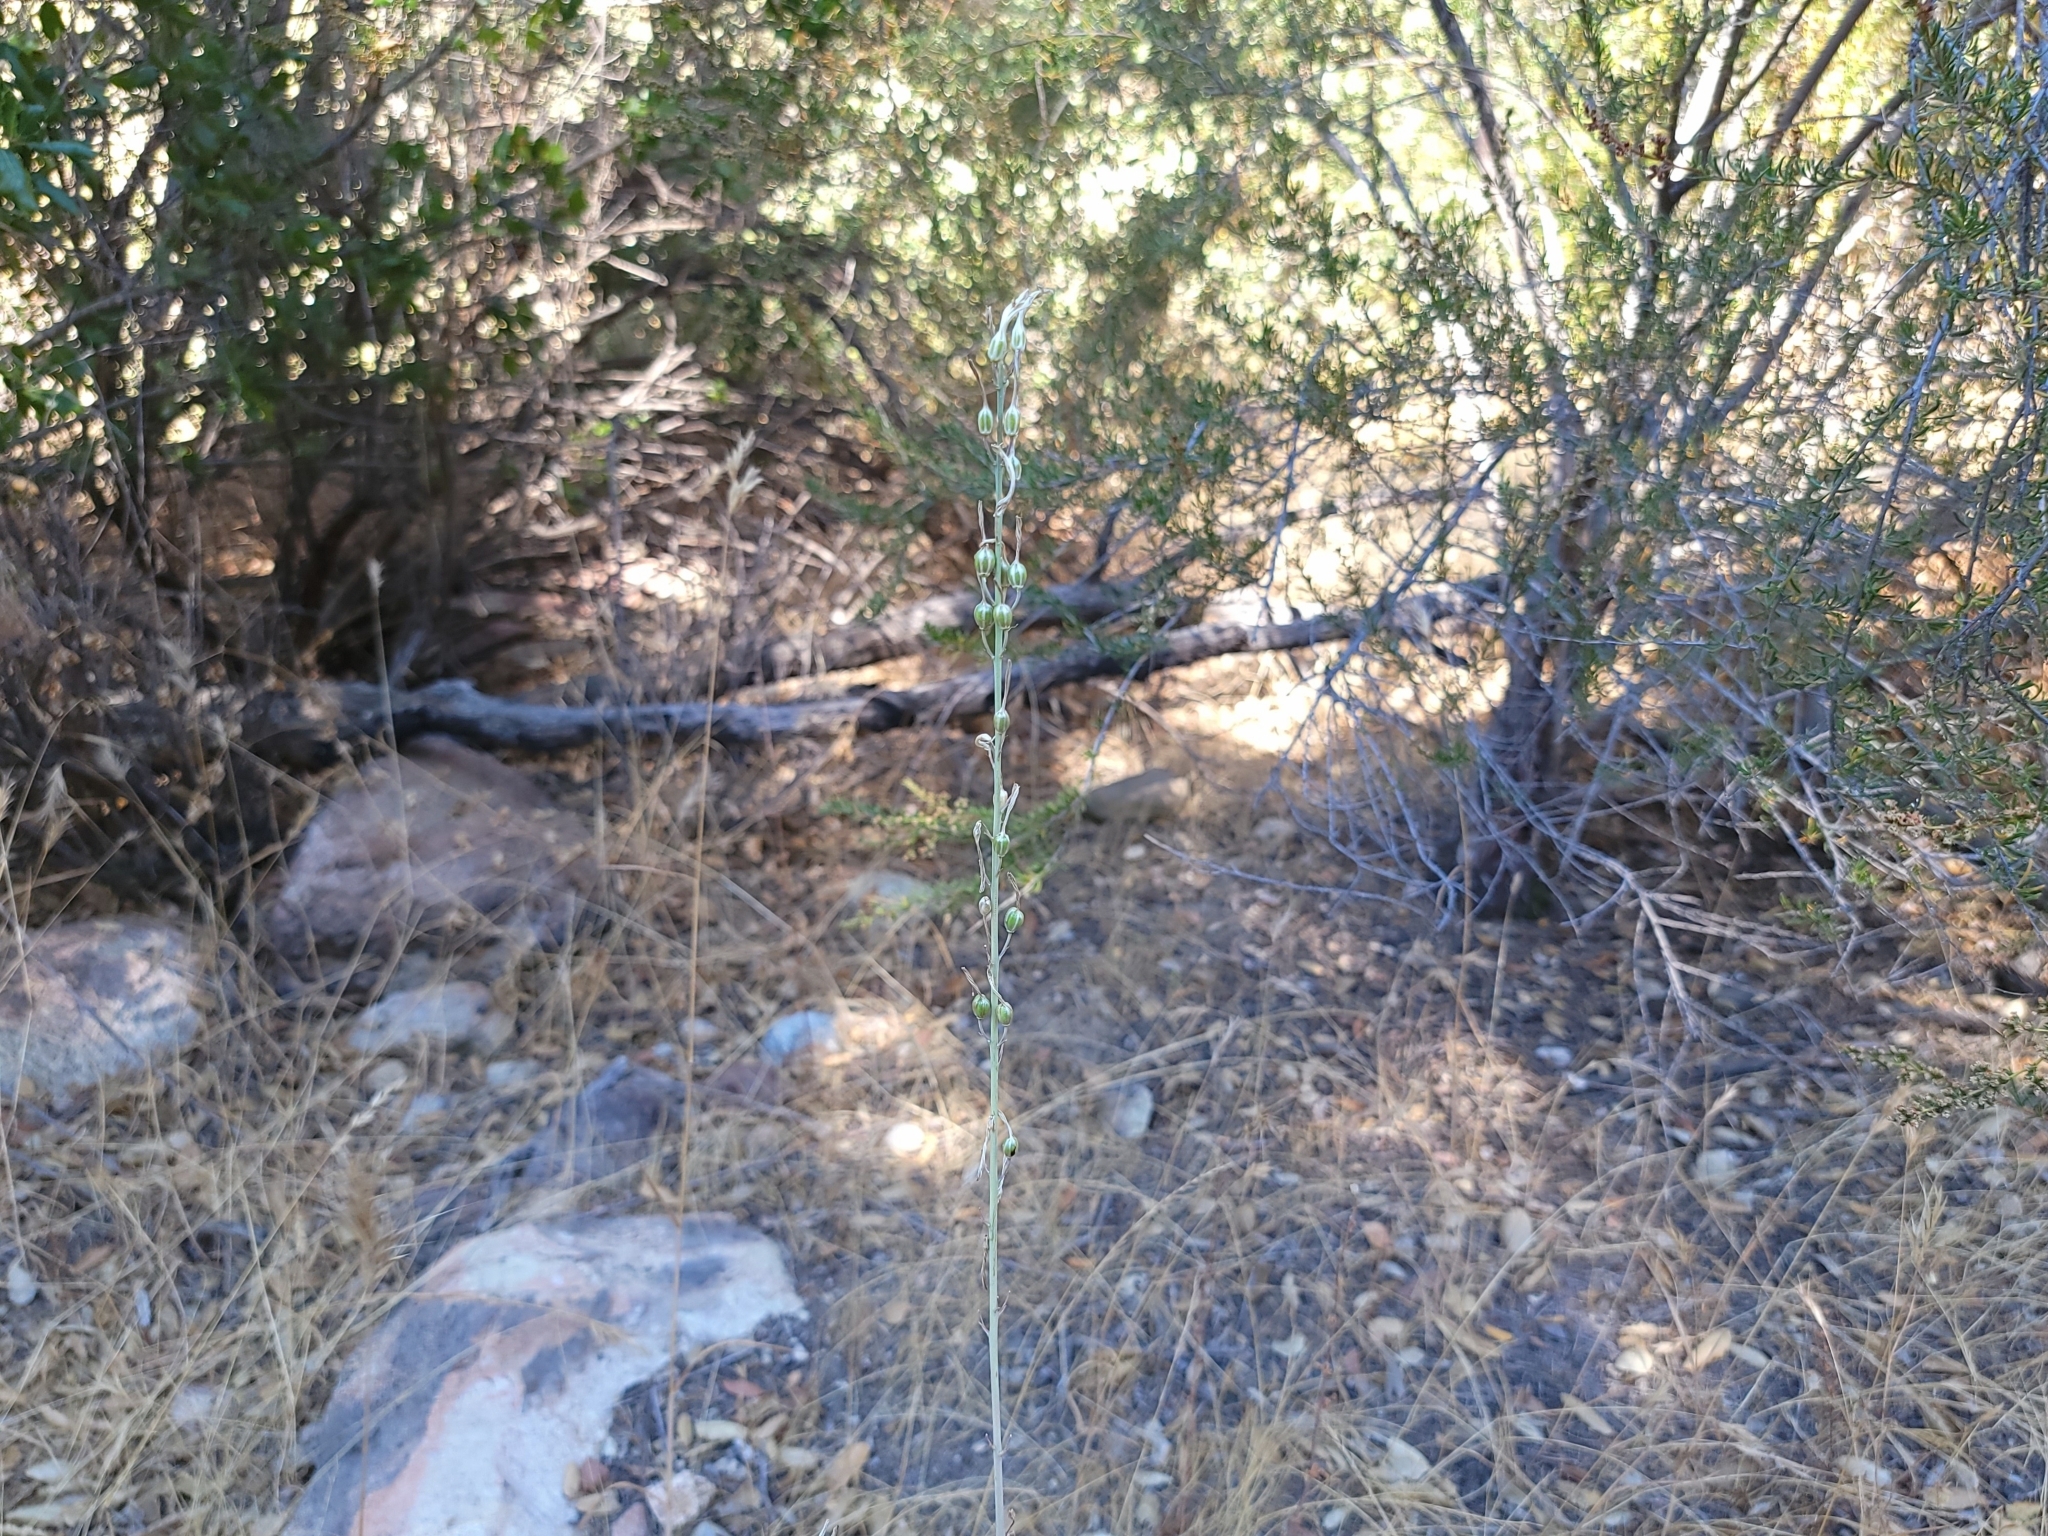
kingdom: Plantae
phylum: Tracheophyta
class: Liliopsida
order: Asparagales
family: Asparagaceae
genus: Chlorogalum
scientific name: Chlorogalum pomeridianum
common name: Amole
